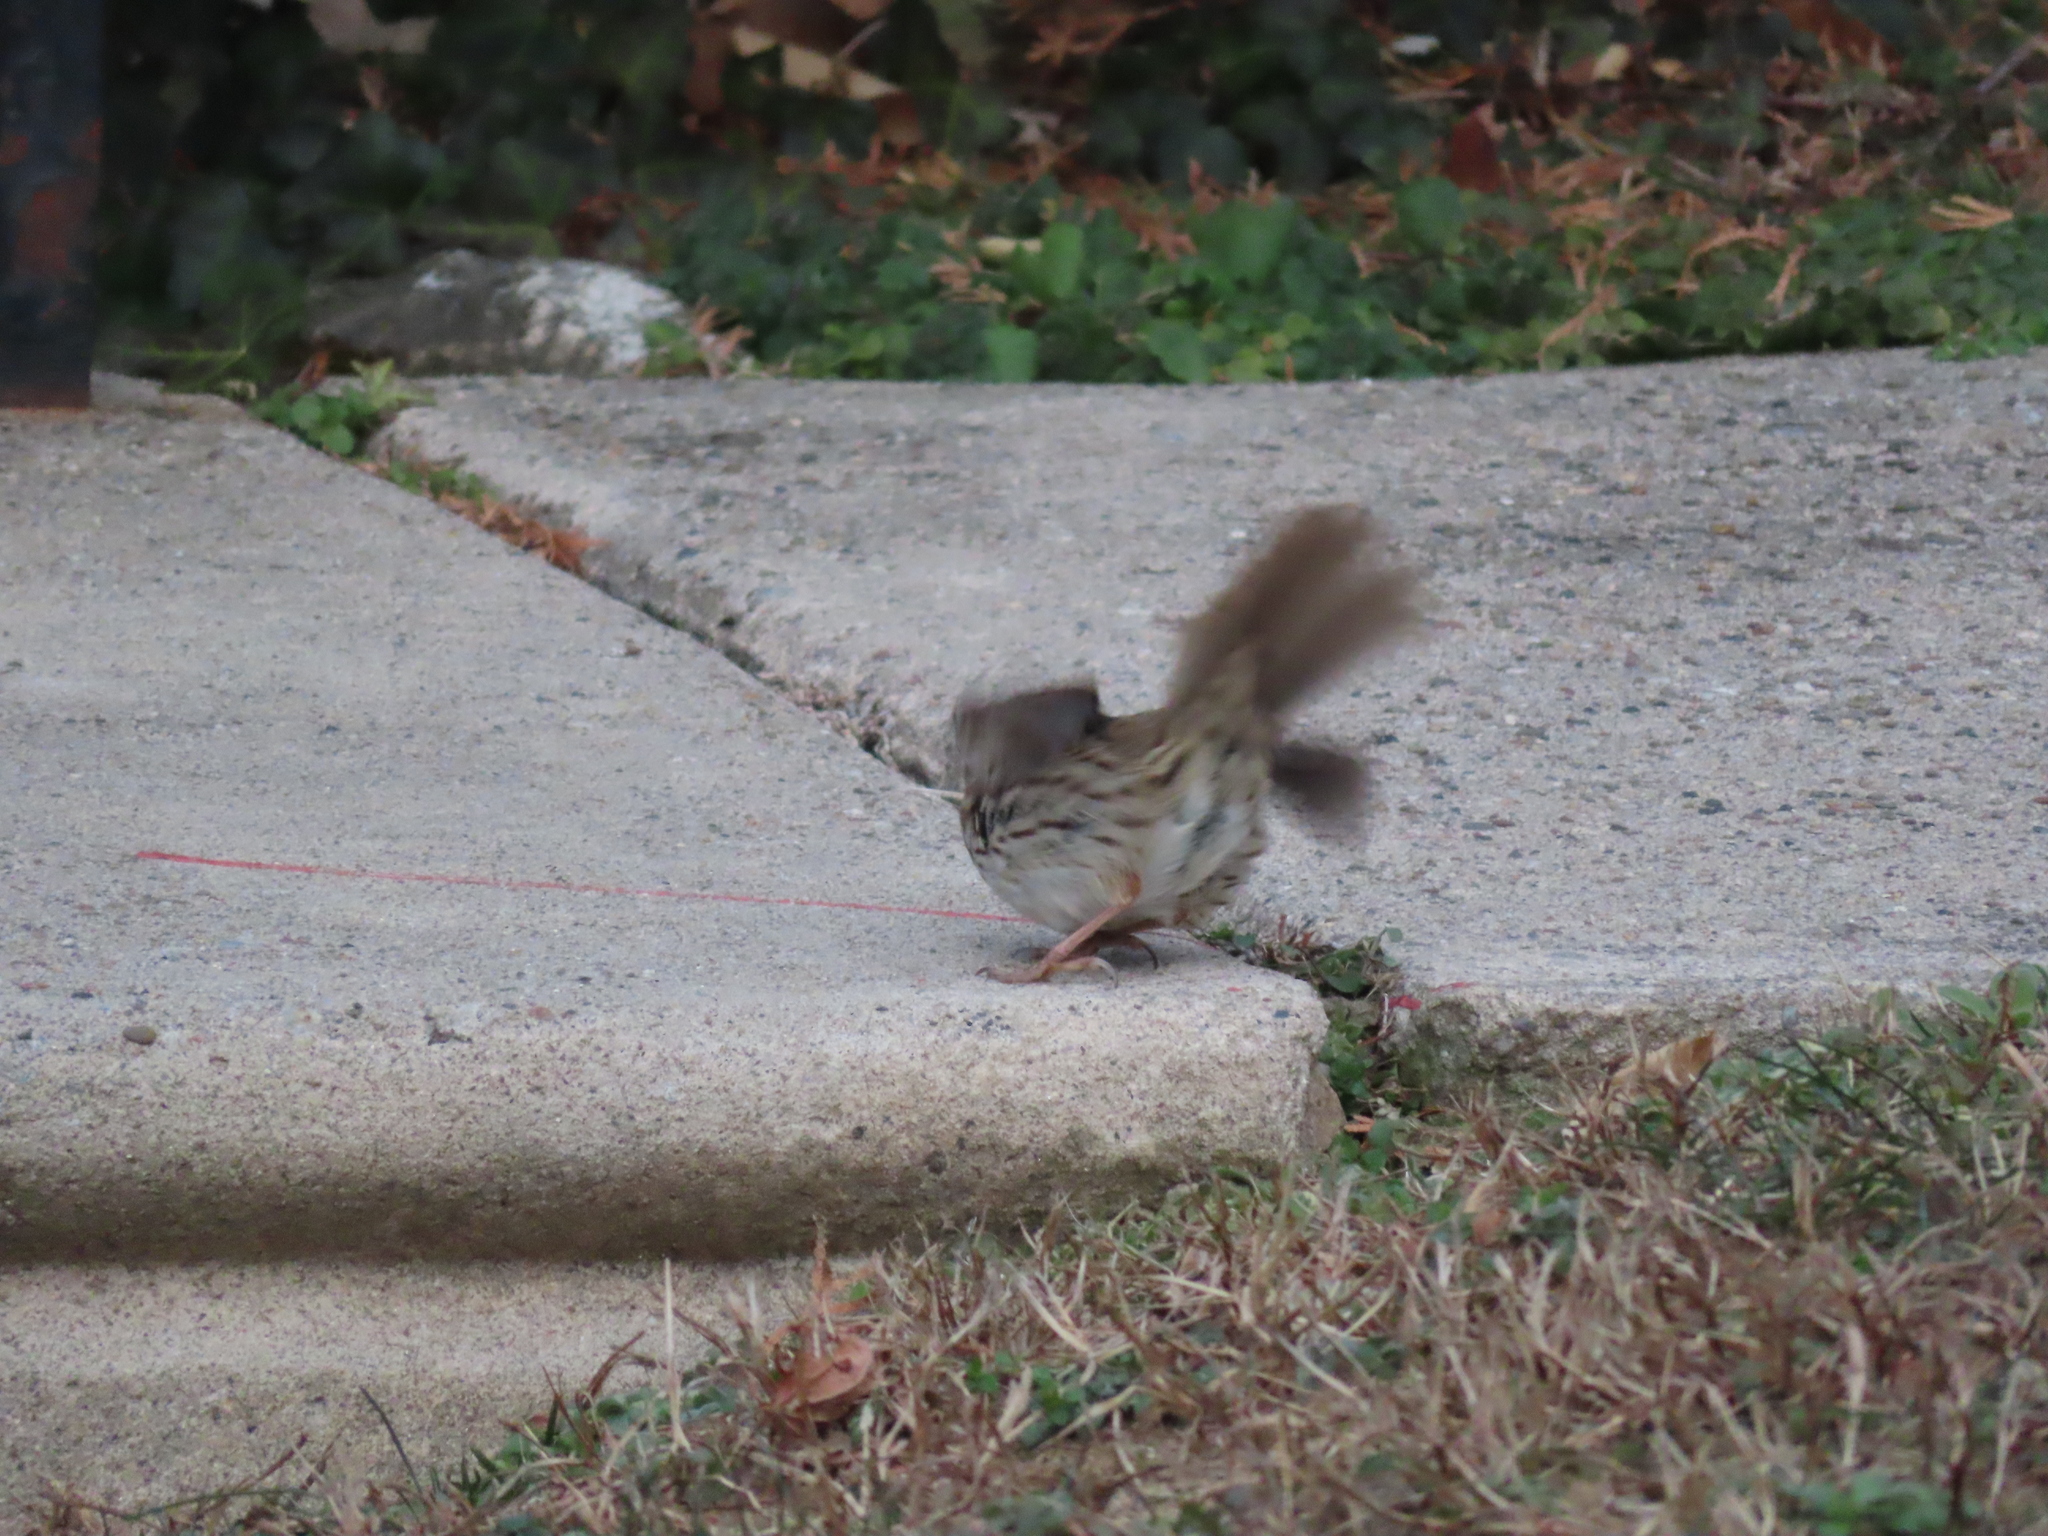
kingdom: Animalia
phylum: Chordata
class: Aves
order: Passeriformes
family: Passerellidae
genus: Melospiza
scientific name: Melospiza melodia
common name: Song sparrow
